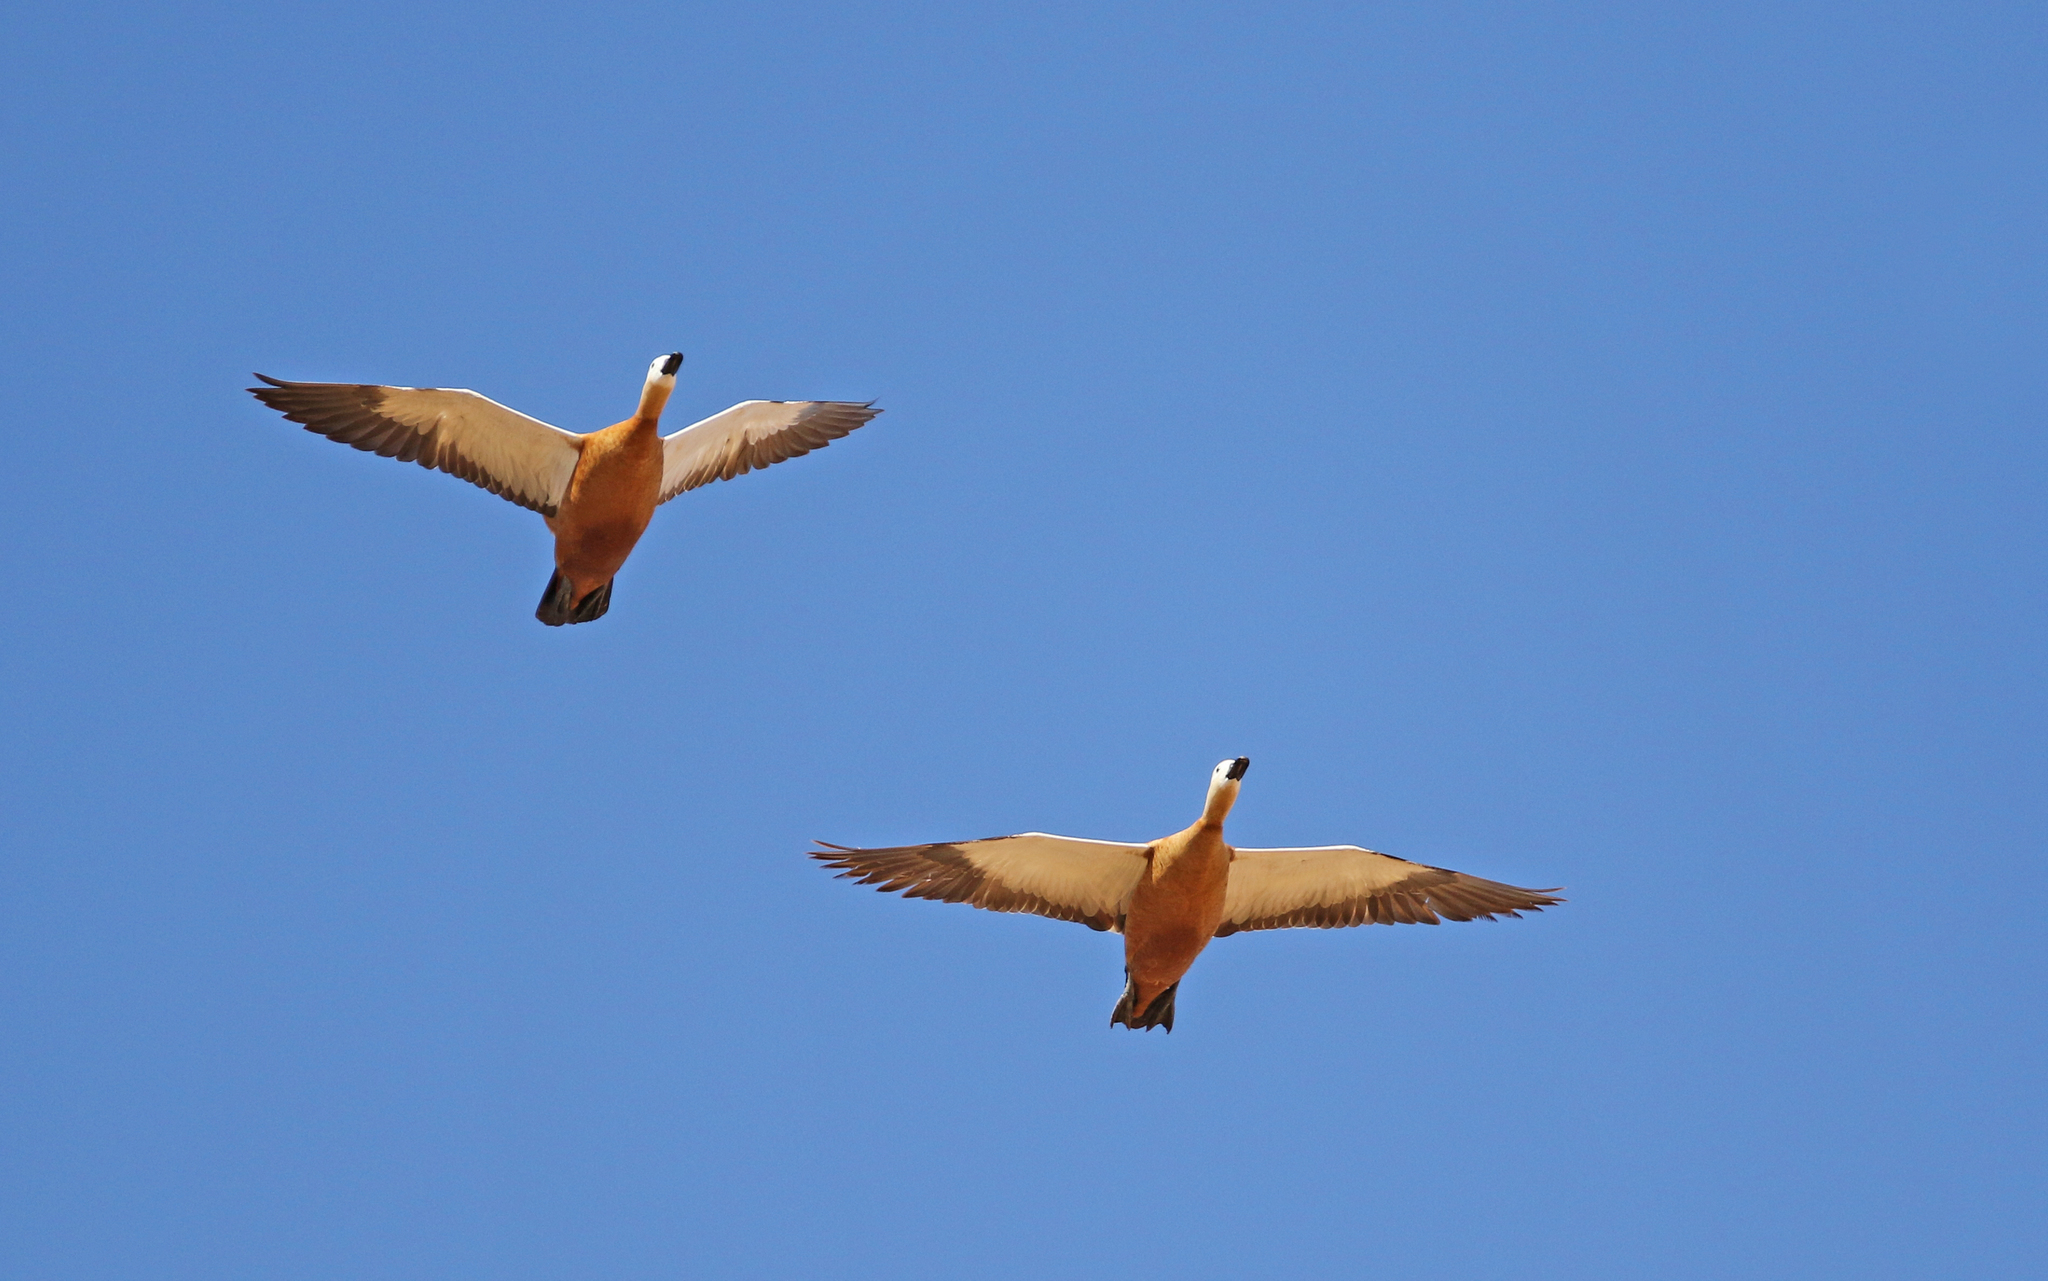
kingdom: Animalia
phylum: Chordata
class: Aves
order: Anseriformes
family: Anatidae
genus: Tadorna
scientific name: Tadorna ferruginea
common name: Ruddy shelduck
